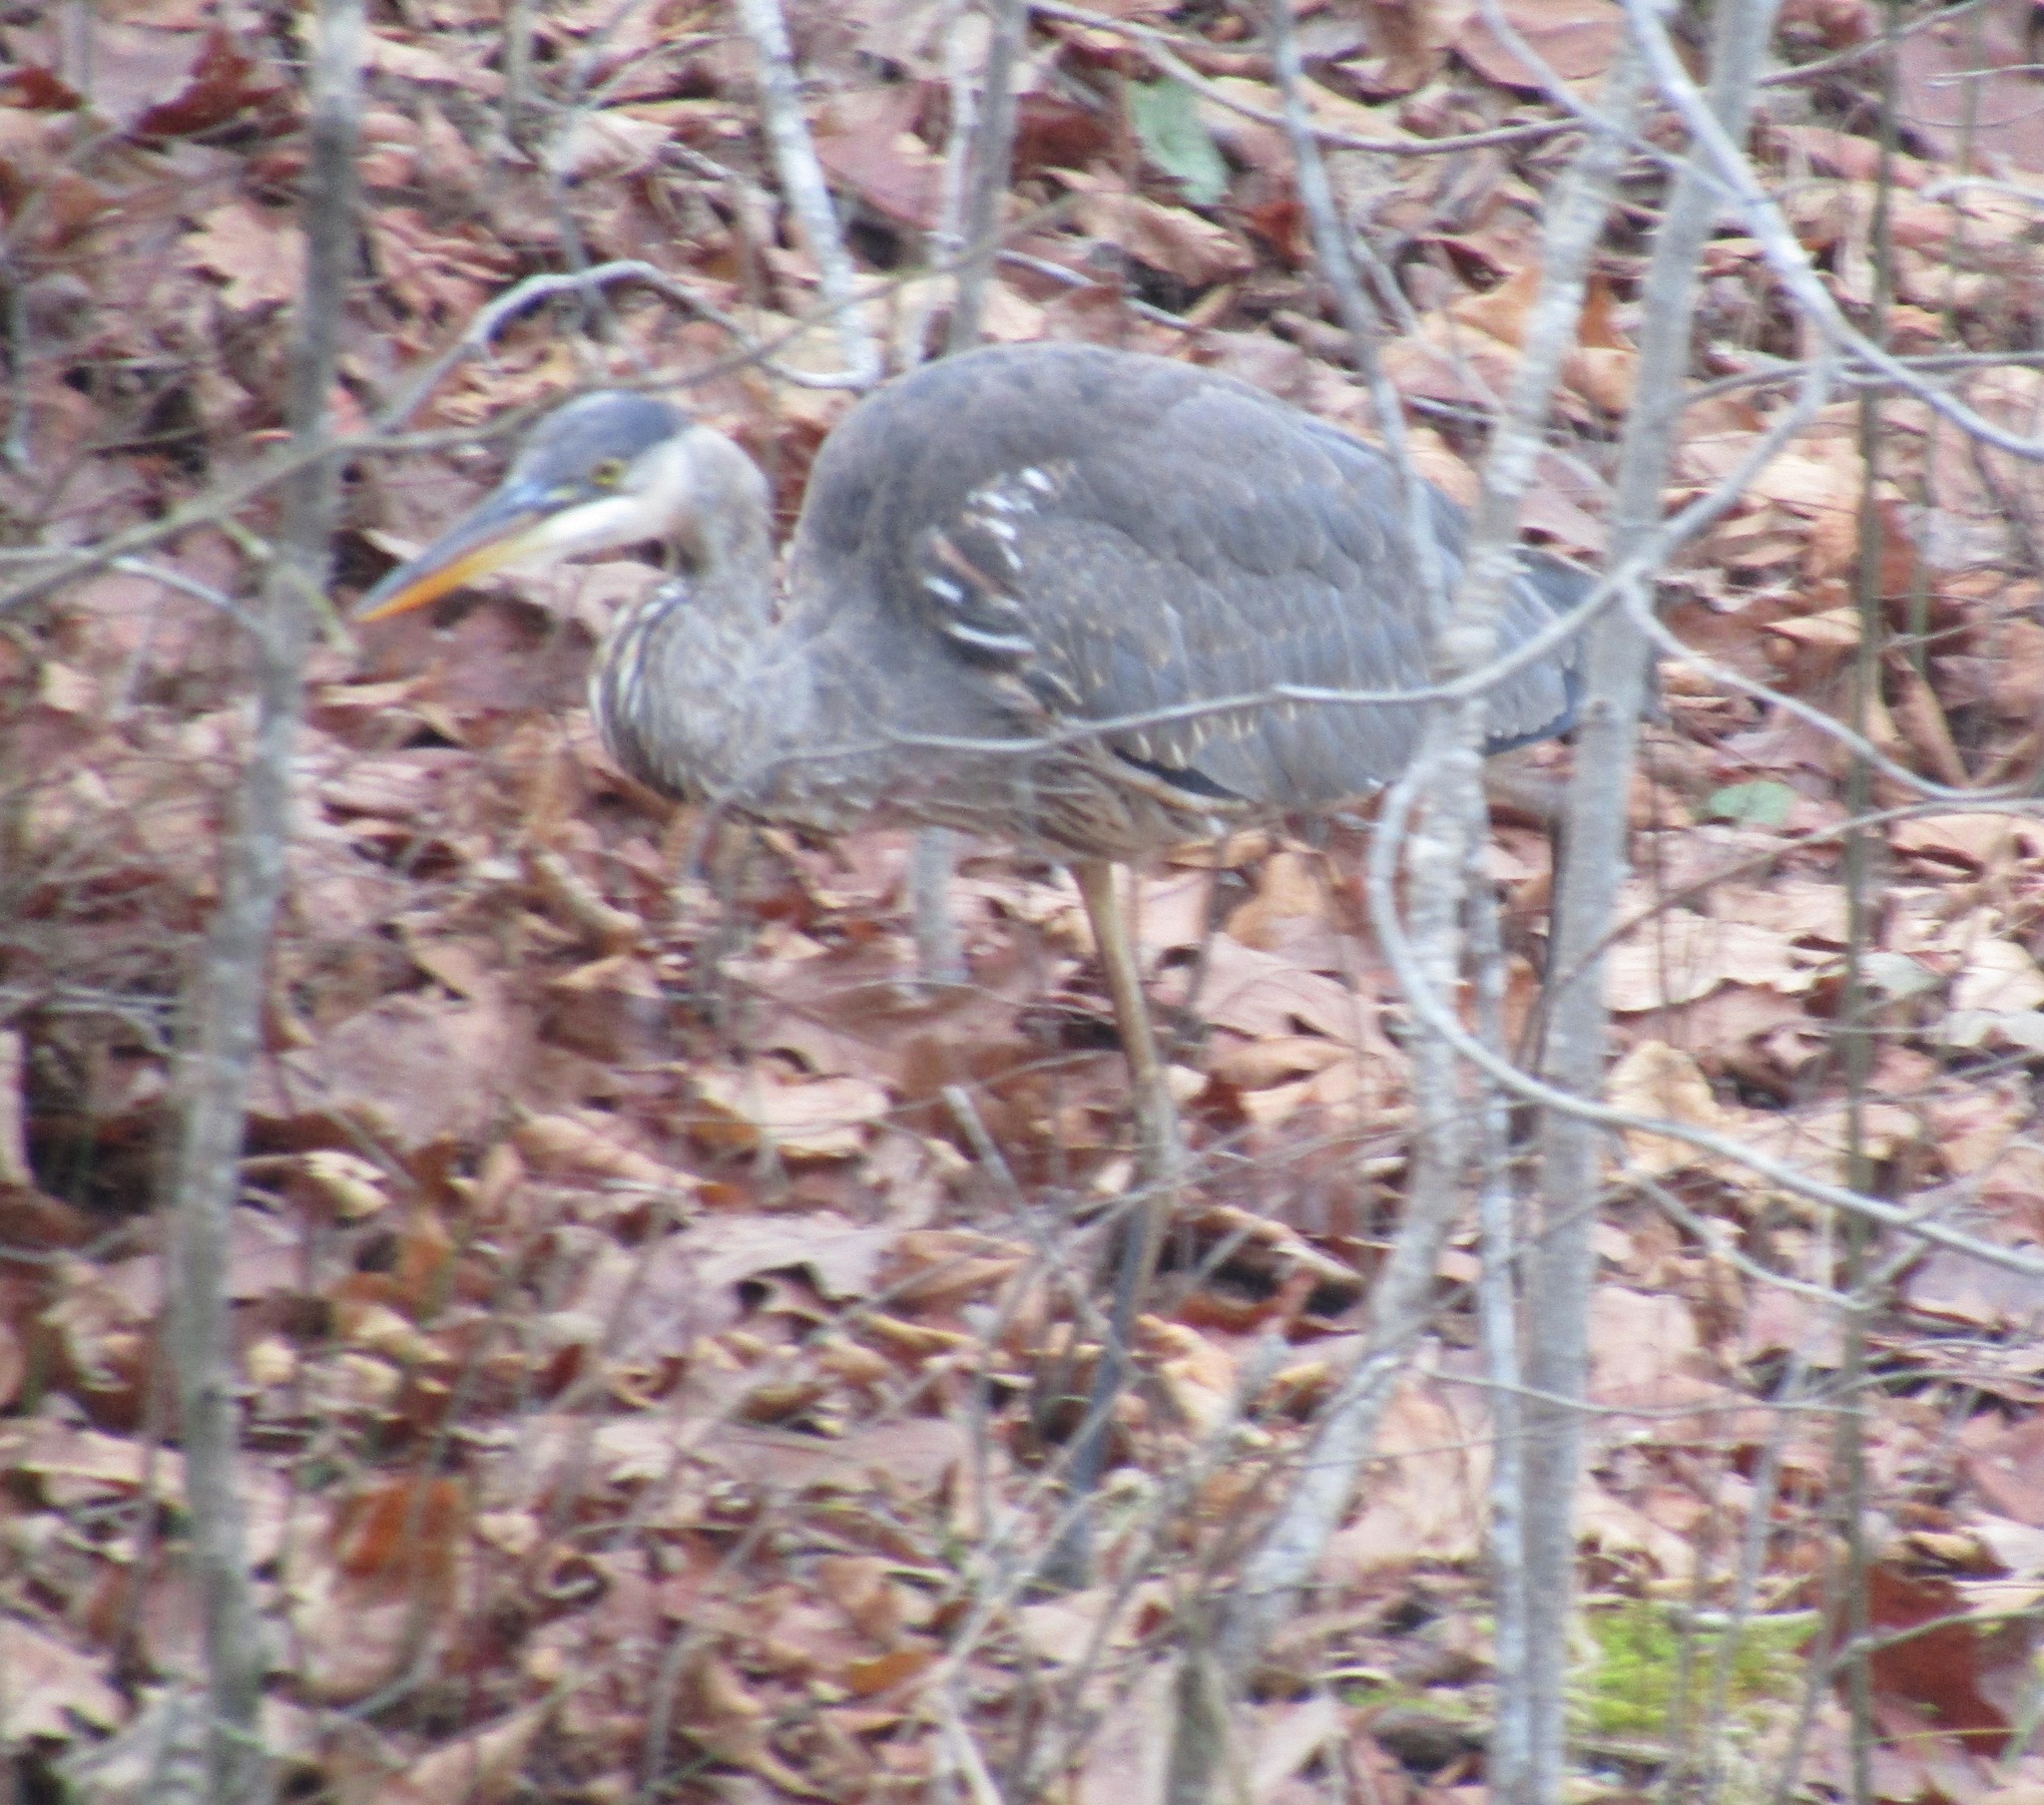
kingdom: Animalia
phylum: Chordata
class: Aves
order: Pelecaniformes
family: Ardeidae
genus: Ardea
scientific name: Ardea herodias
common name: Great blue heron
